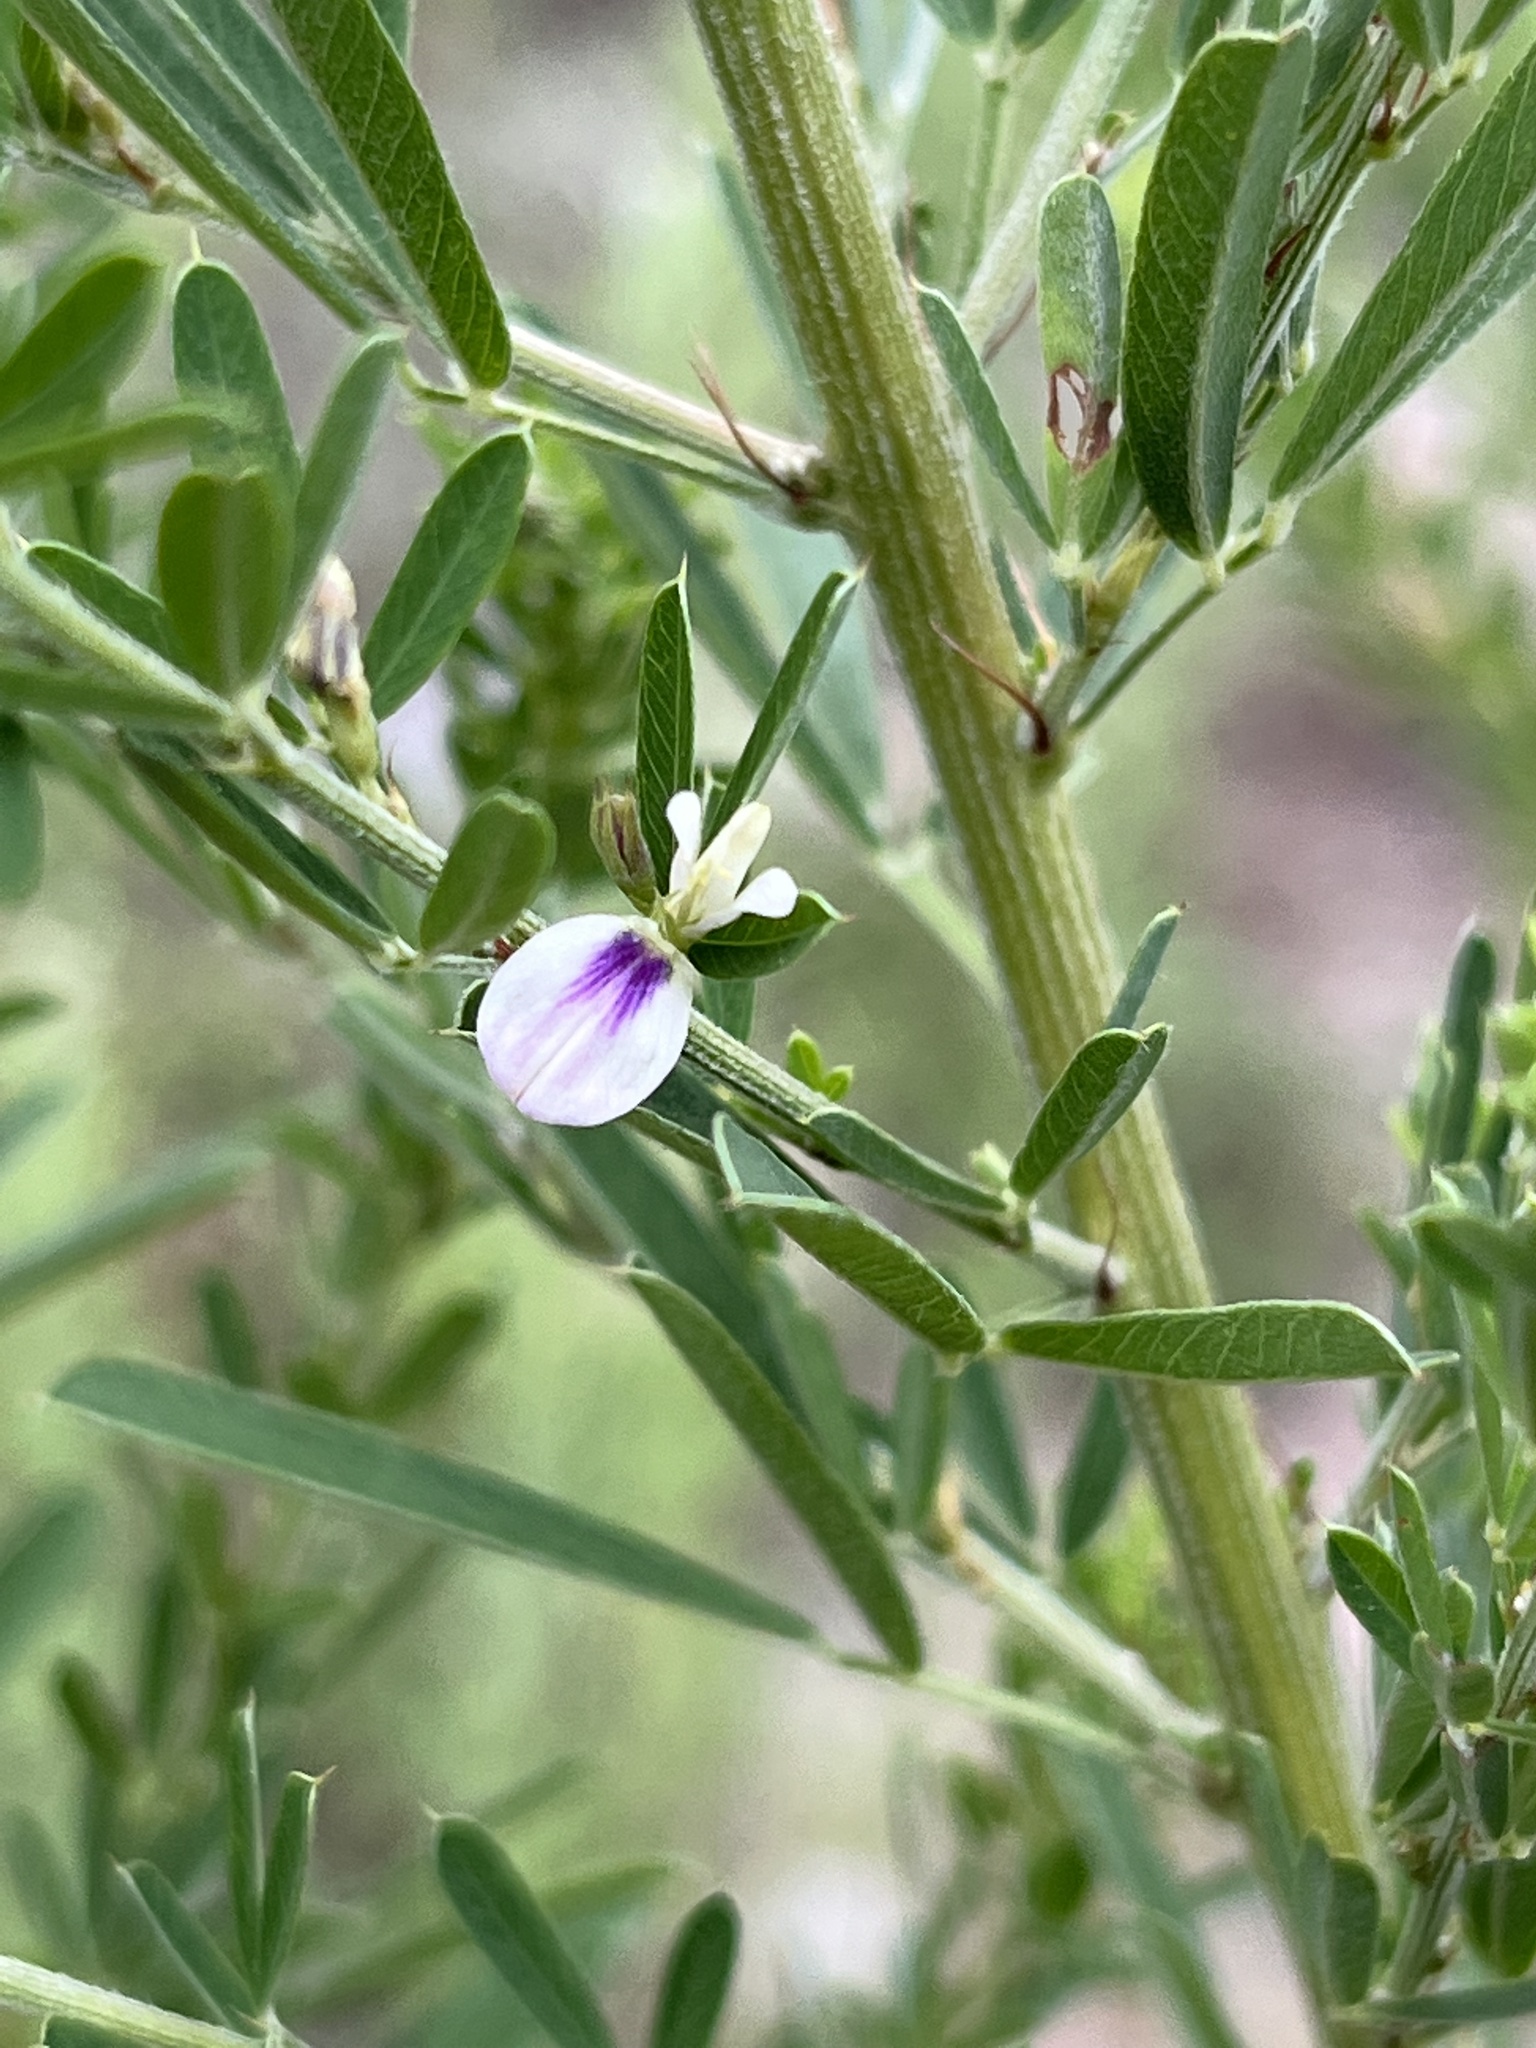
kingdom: Plantae
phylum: Tracheophyta
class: Magnoliopsida
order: Fabales
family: Fabaceae
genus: Lespedeza
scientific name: Lespedeza cuneata
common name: Chinese bush-clover
